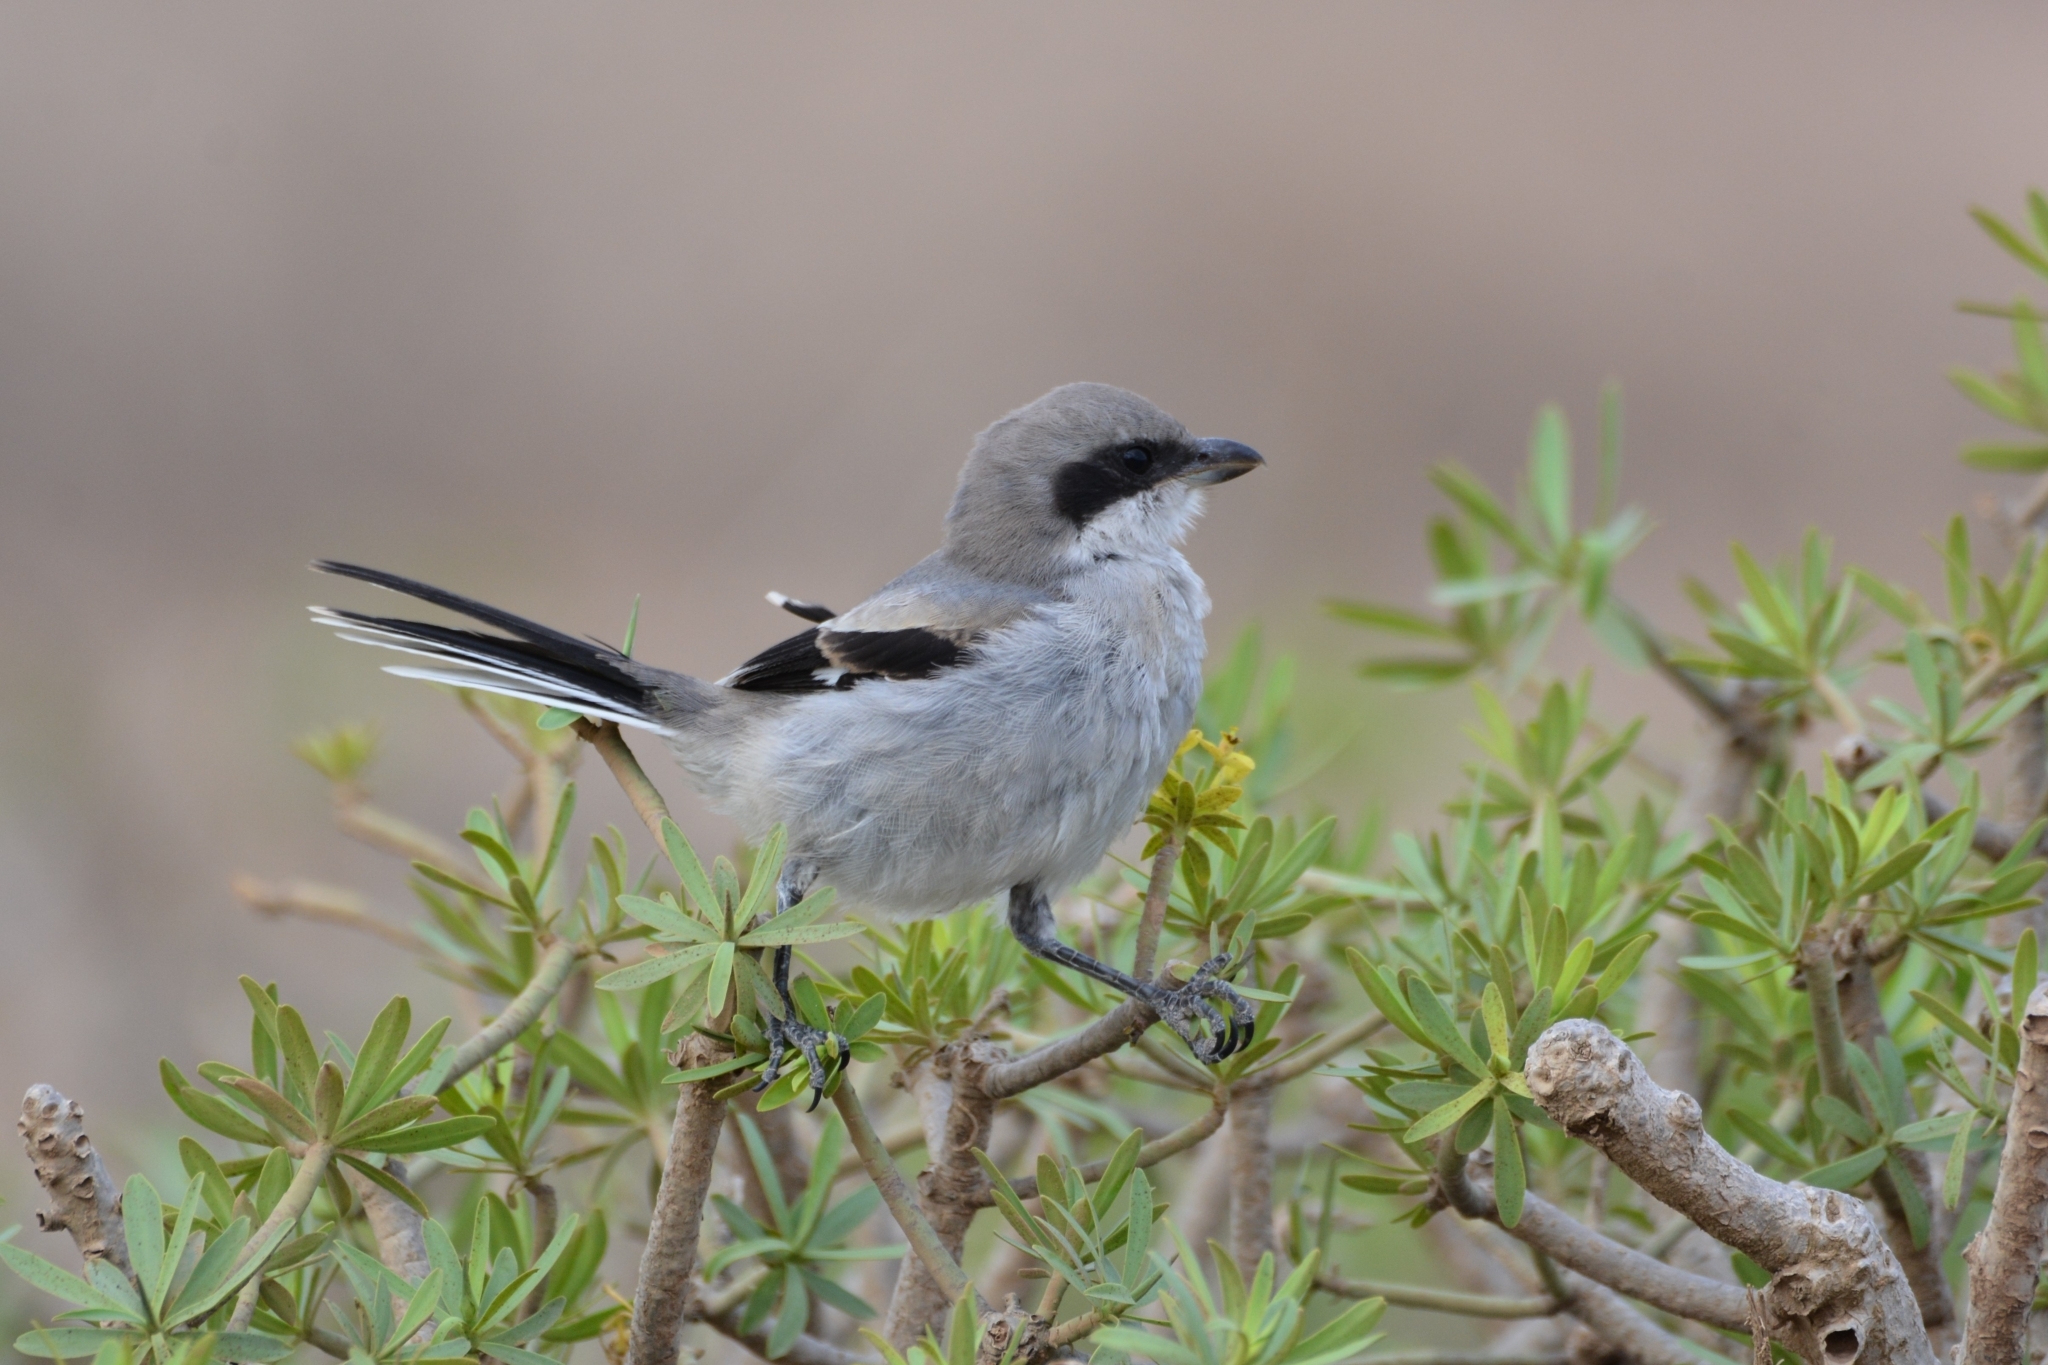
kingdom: Animalia
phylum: Chordata
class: Aves
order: Passeriformes
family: Laniidae
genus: Lanius
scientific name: Lanius excubitor
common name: Great grey shrike
